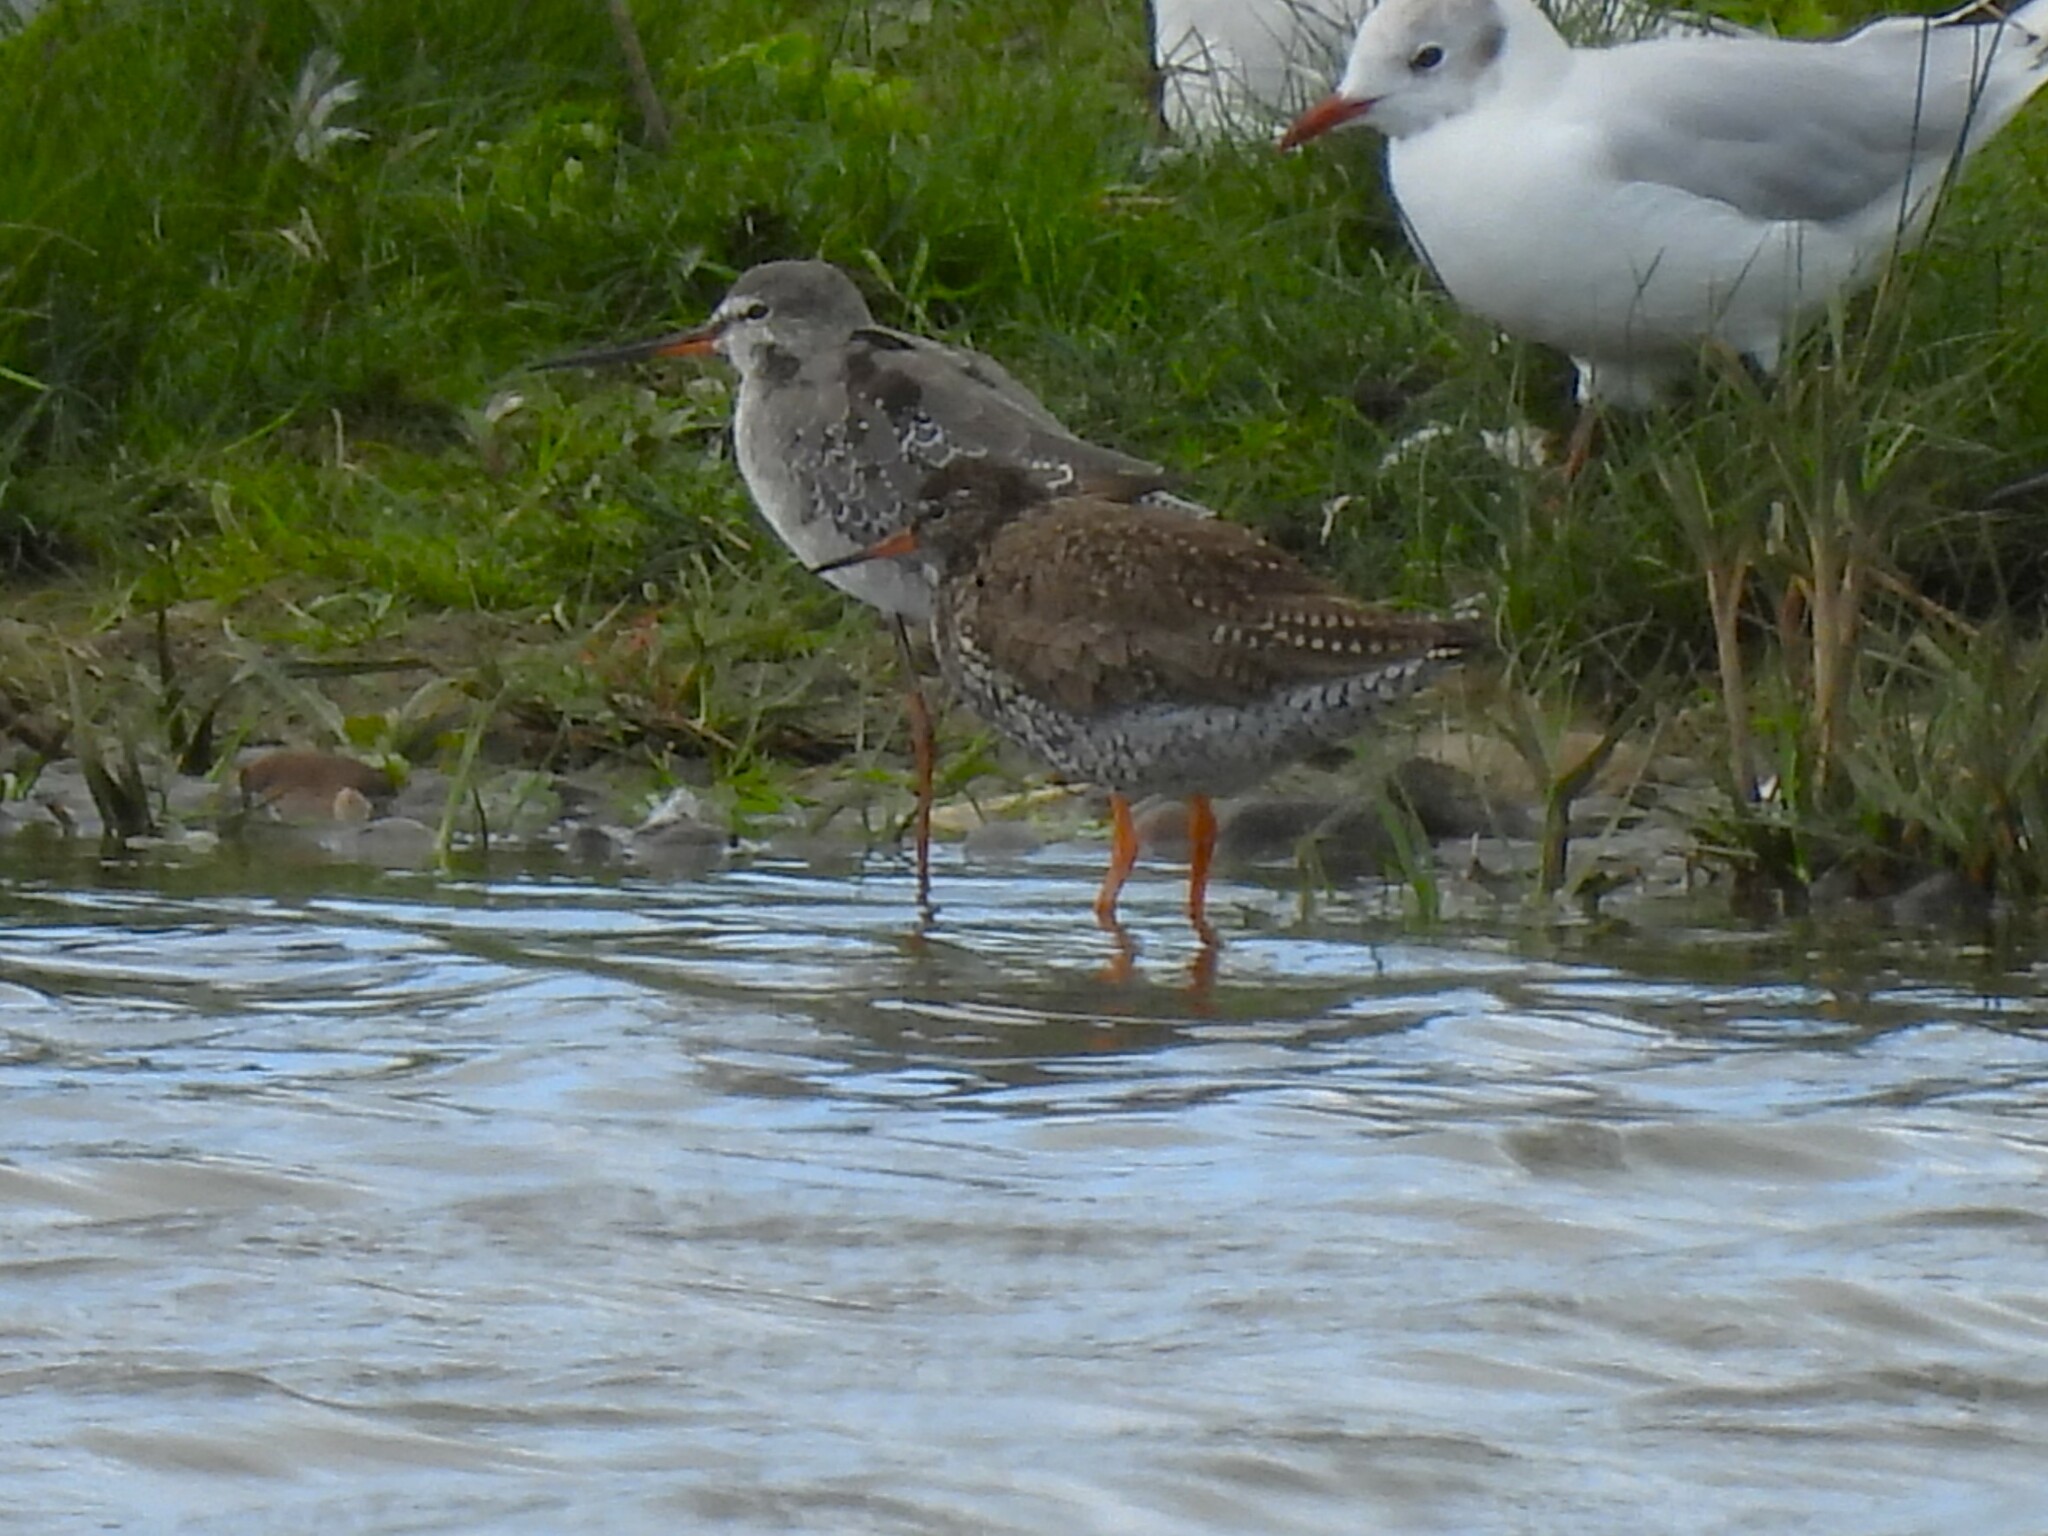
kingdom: Animalia
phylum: Chordata
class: Aves
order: Charadriiformes
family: Scolopacidae
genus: Tringa
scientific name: Tringa erythropus
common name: Spotted redshank
